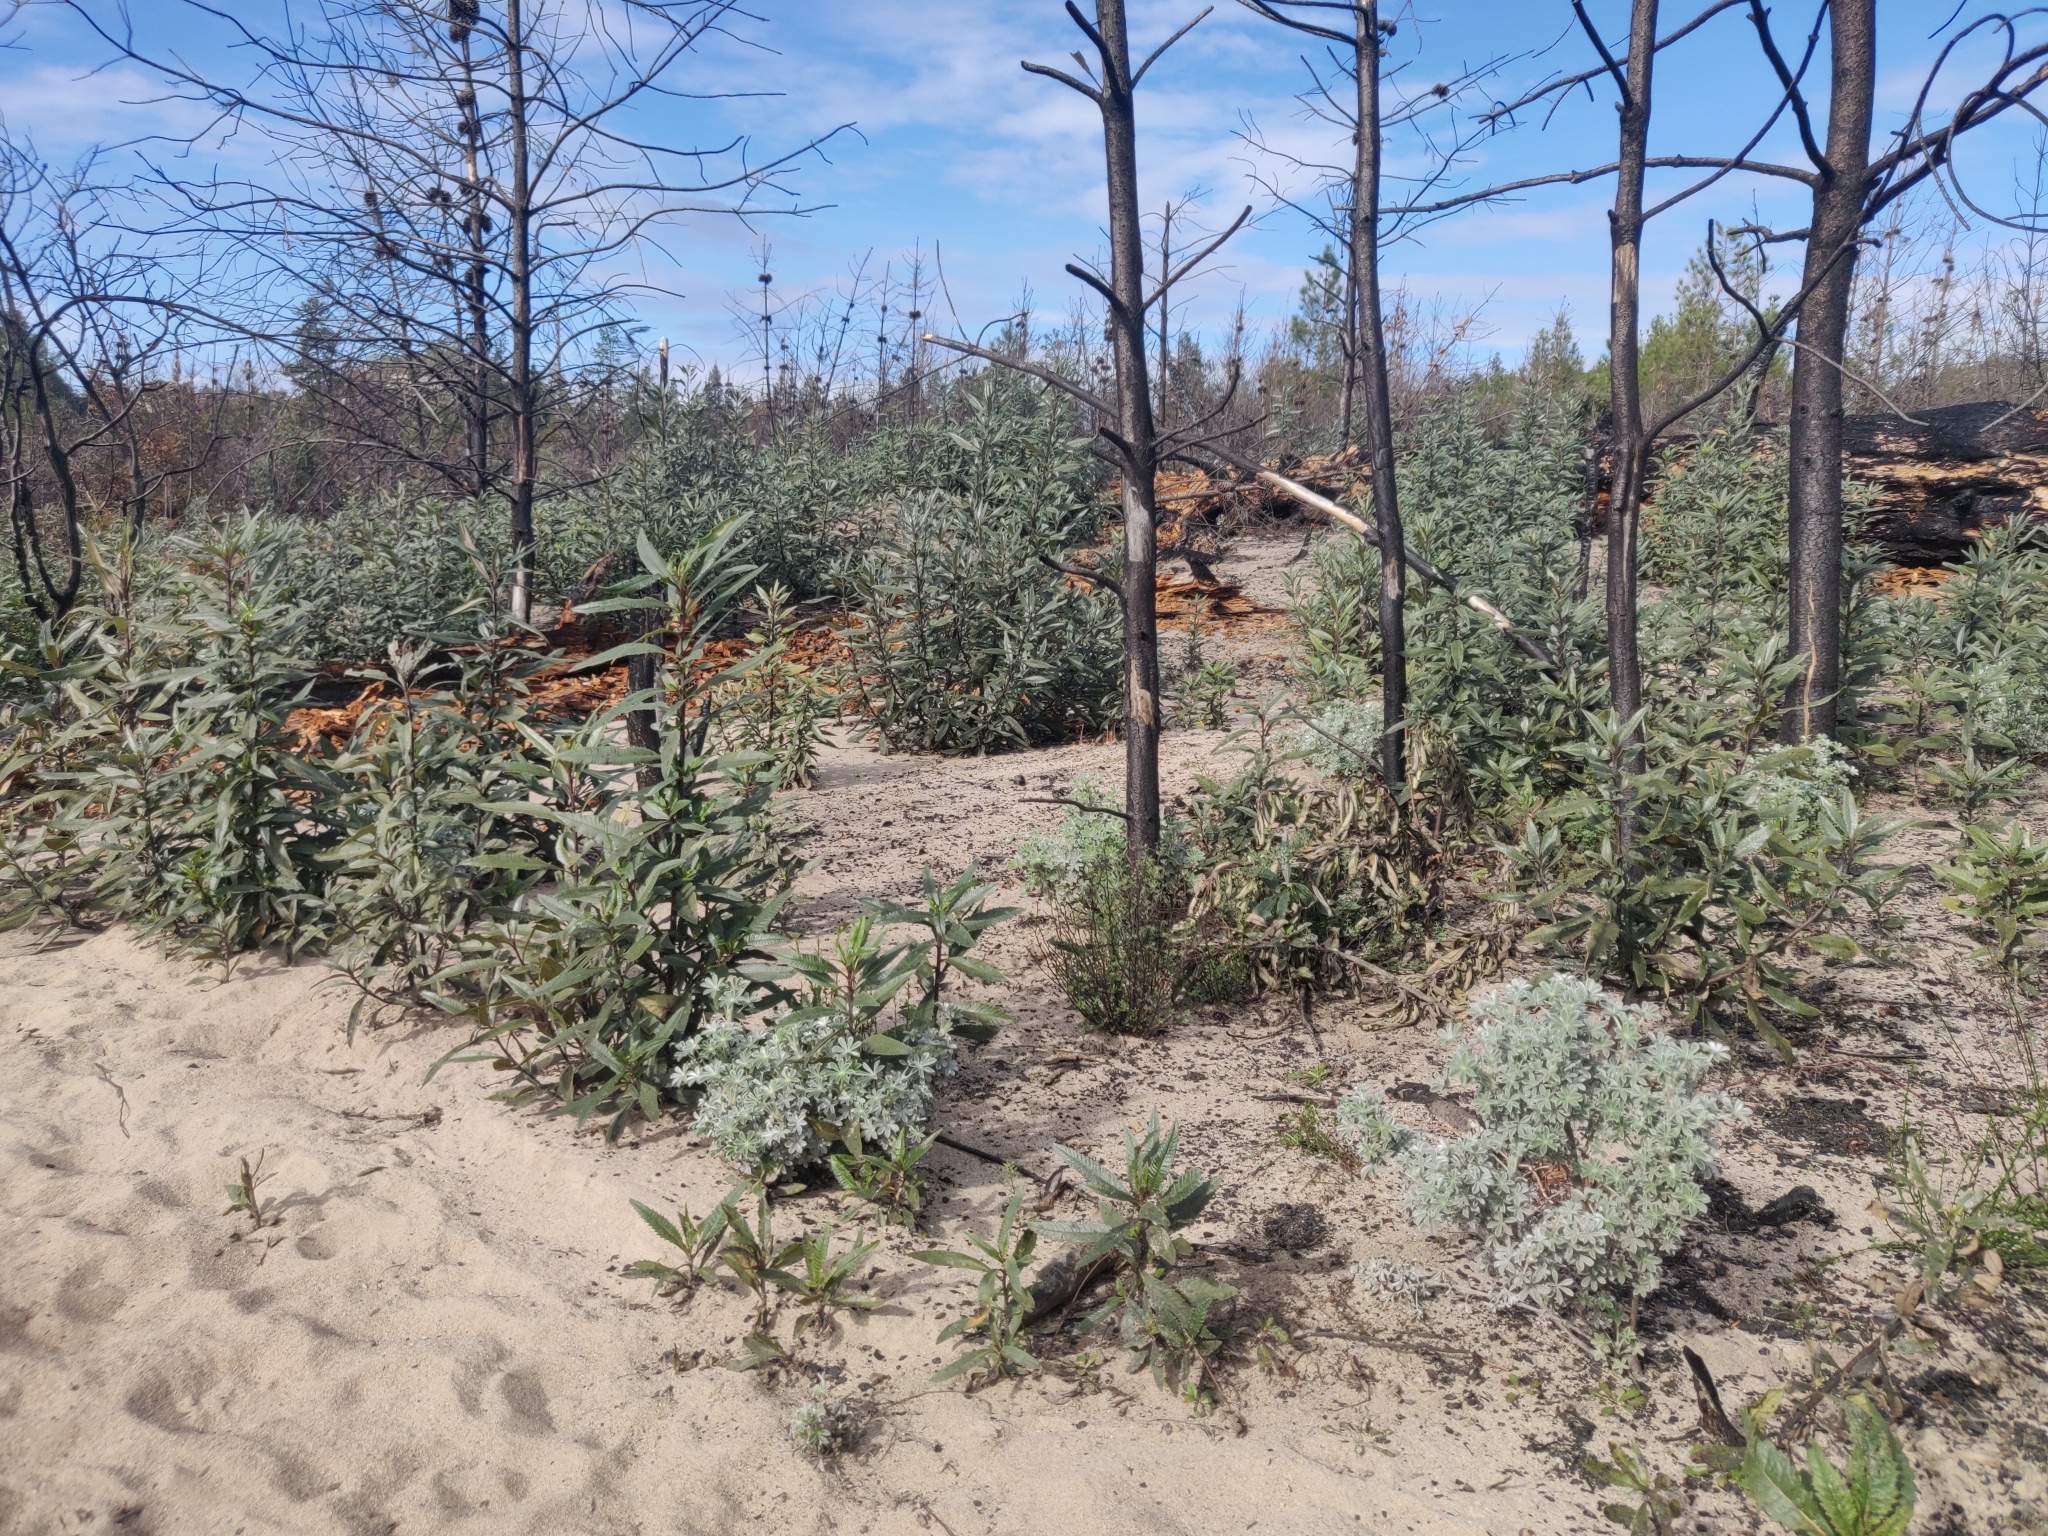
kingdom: Plantae
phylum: Tracheophyta
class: Magnoliopsida
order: Fabales
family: Fabaceae
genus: Acmispon
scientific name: Acmispon glaber
